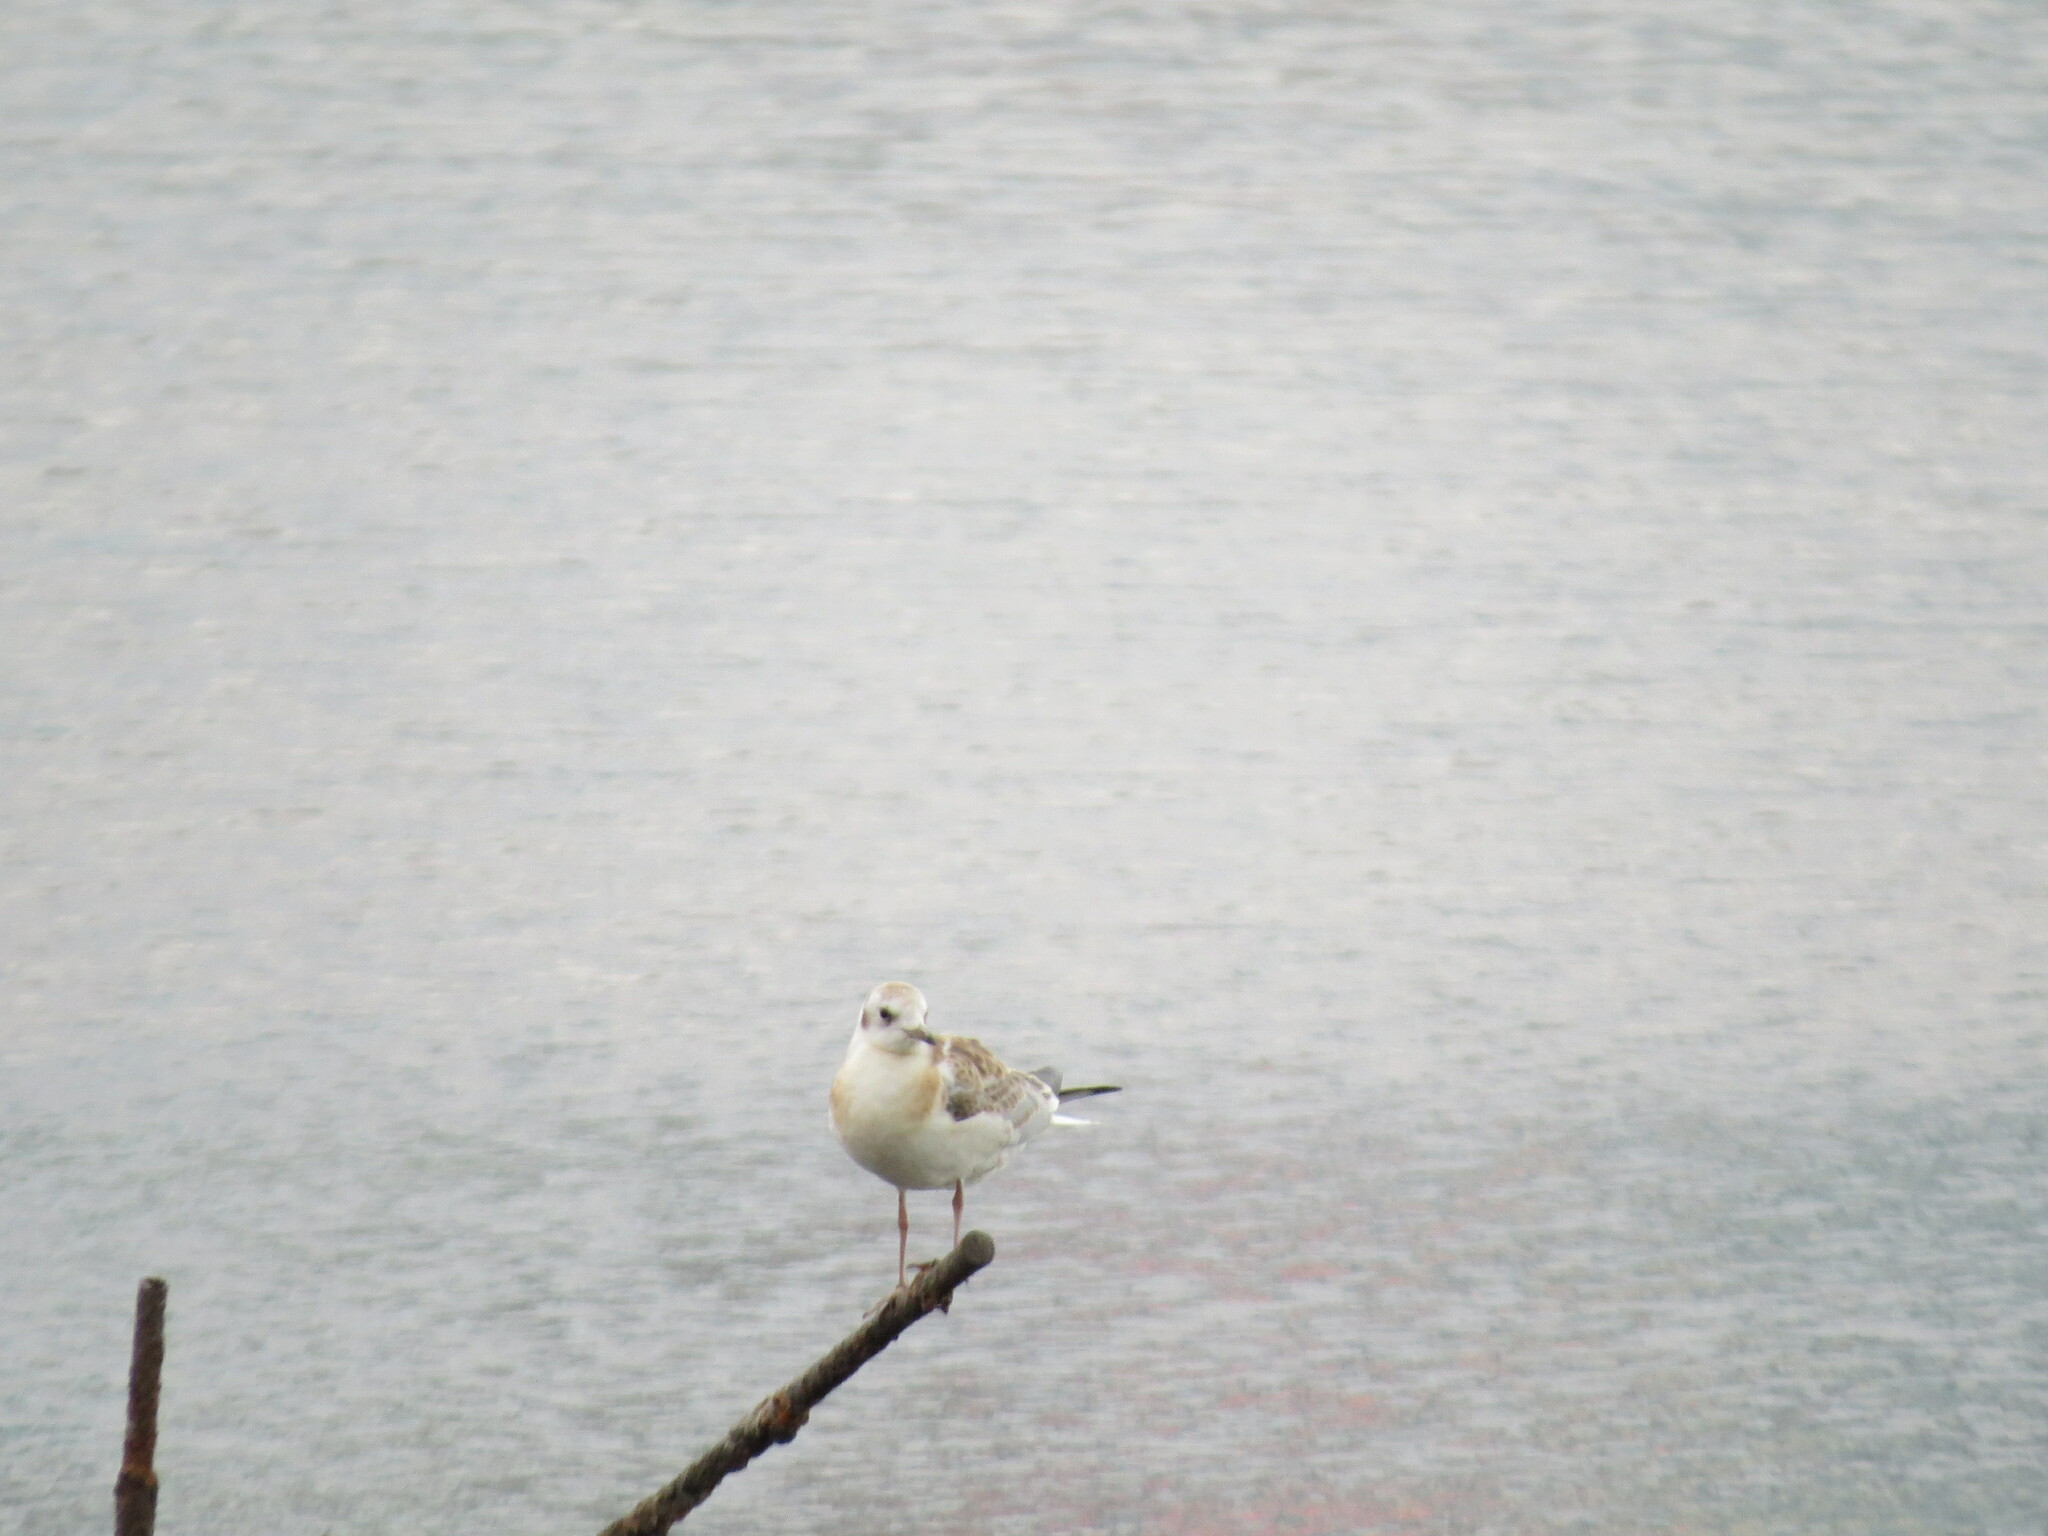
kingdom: Animalia
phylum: Chordata
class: Aves
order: Charadriiformes
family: Laridae
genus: Chroicocephalus
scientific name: Chroicocephalus ridibundus
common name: Black-headed gull
